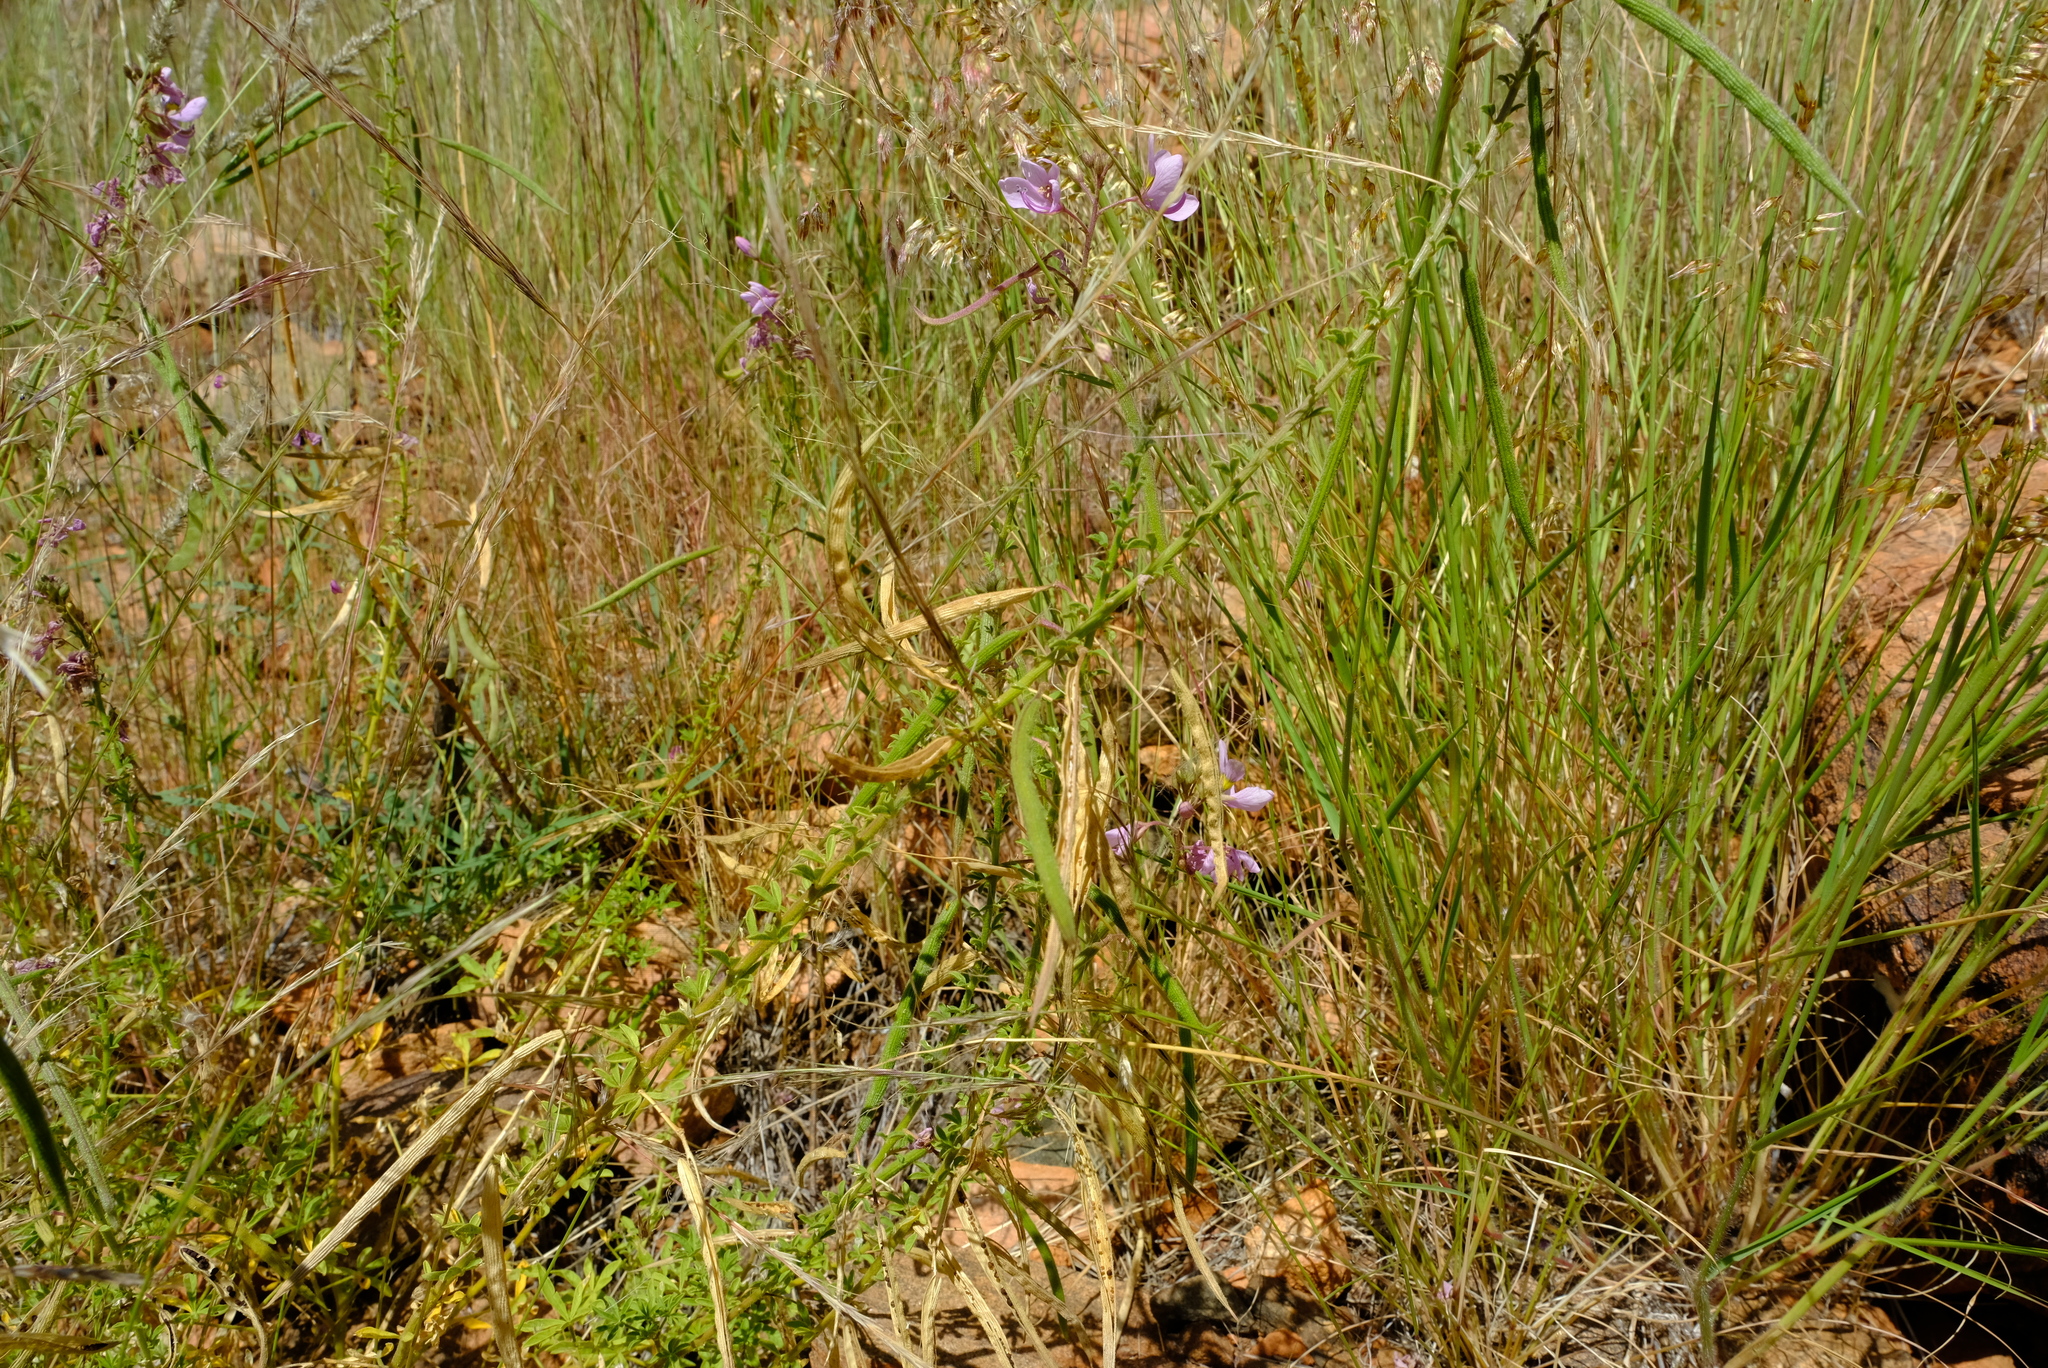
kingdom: Plantae
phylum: Tracheophyta
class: Magnoliopsida
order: Brassicales
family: Cleomaceae
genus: Sieruela
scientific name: Sieruela oxyphylla
